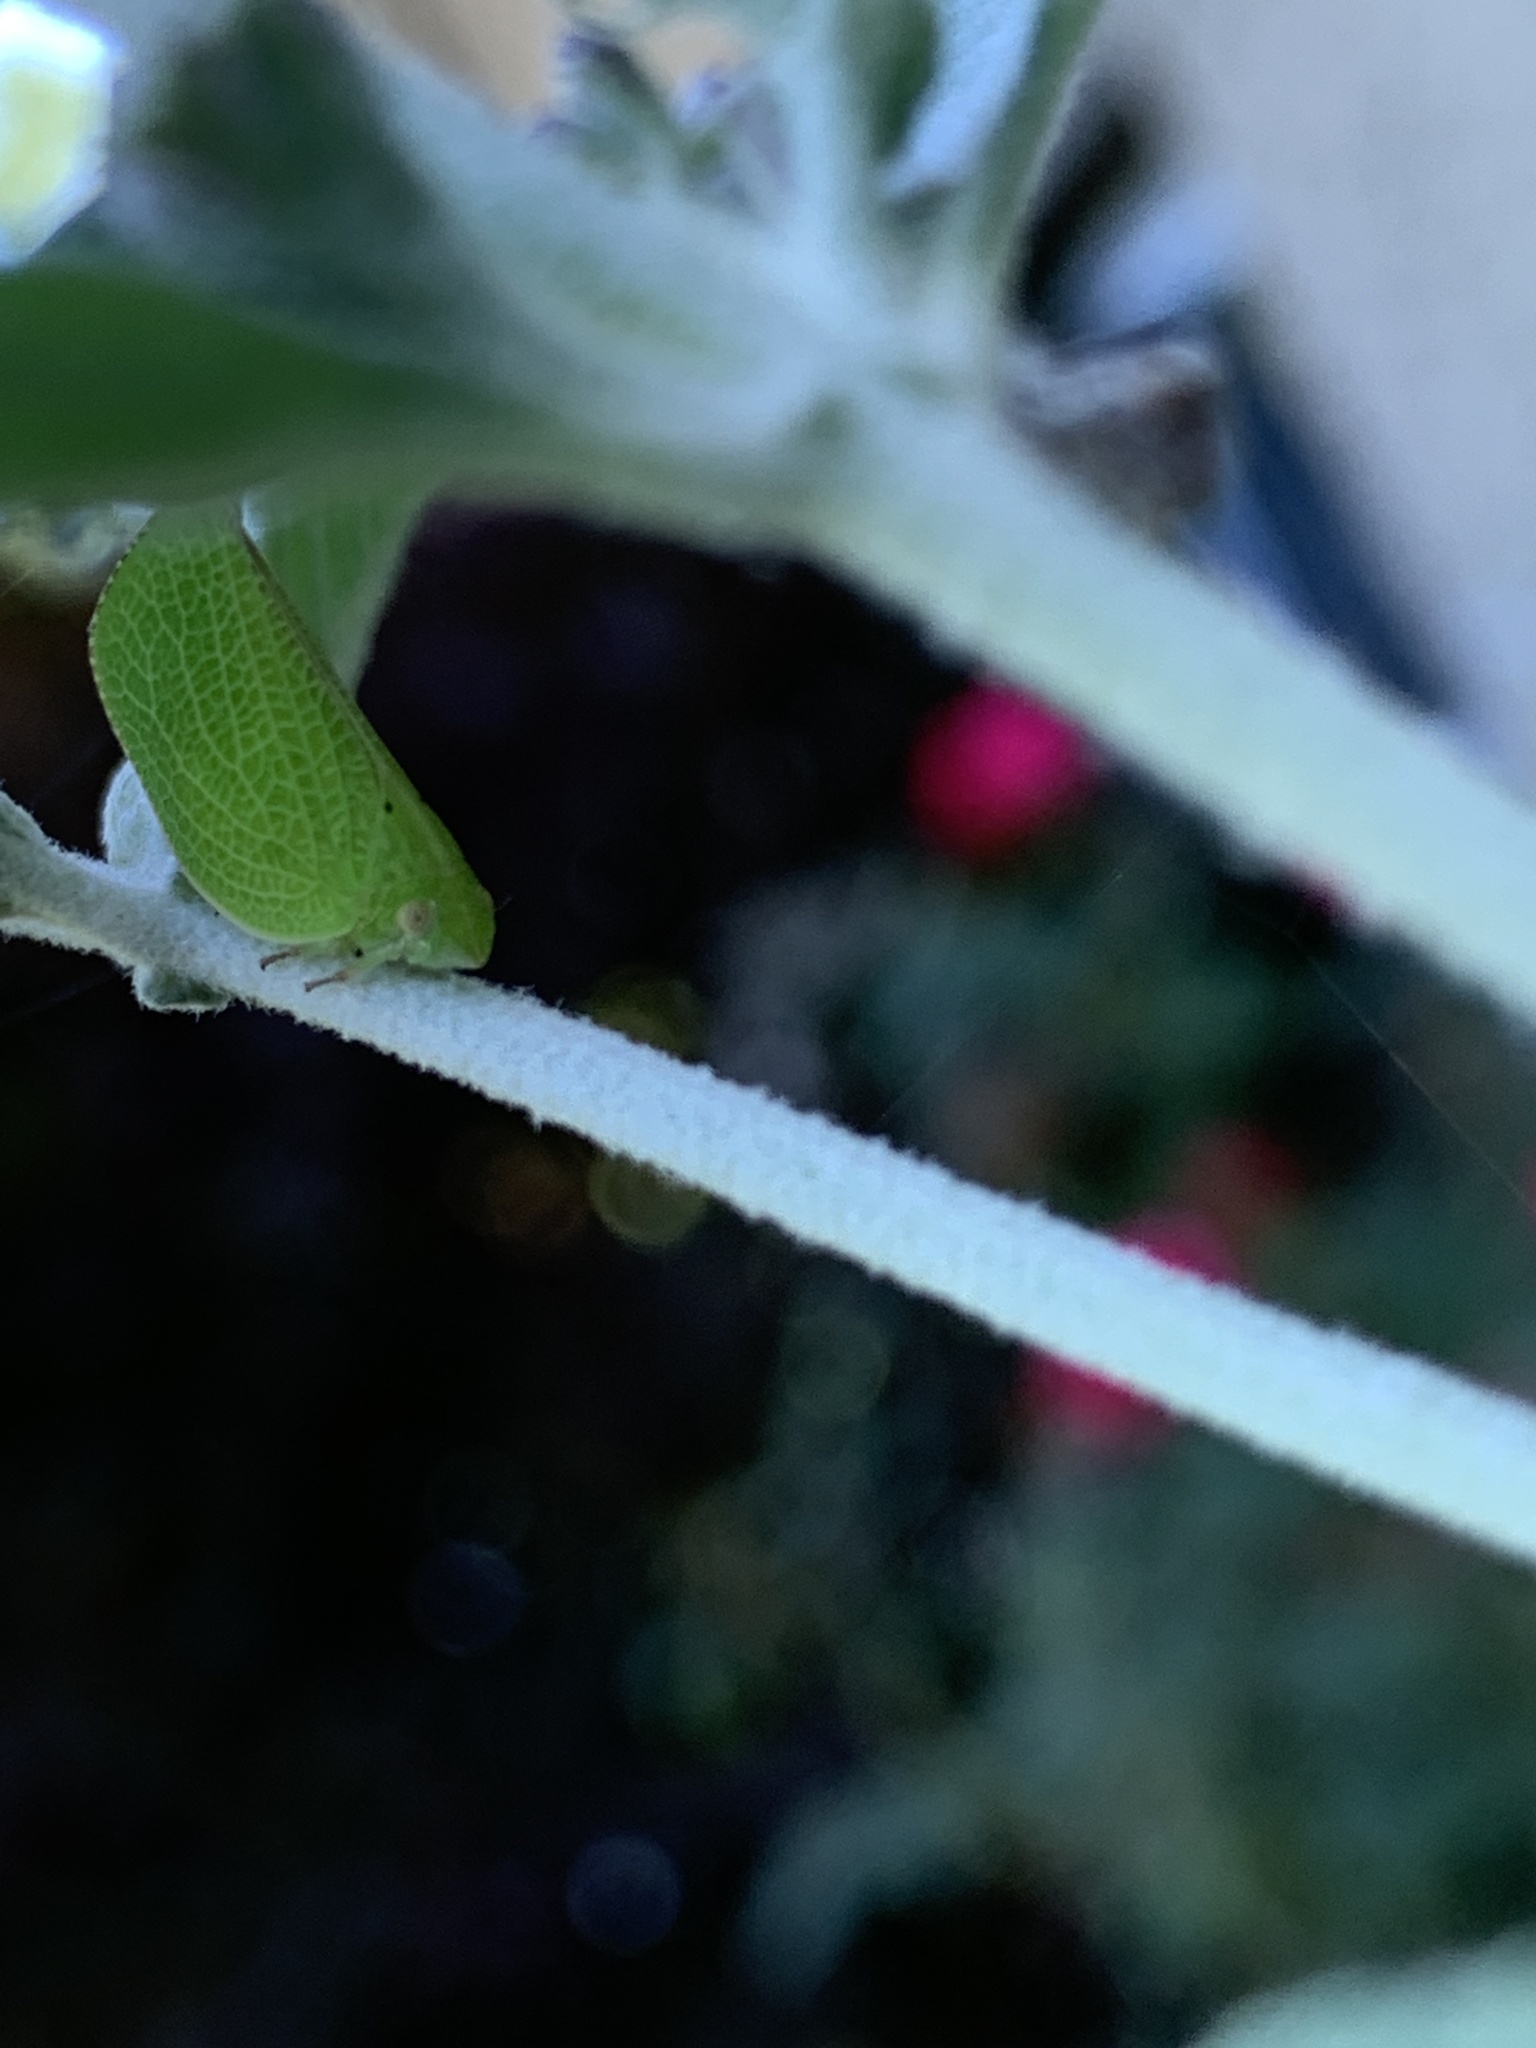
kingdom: Animalia
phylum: Arthropoda
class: Insecta
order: Hemiptera
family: Acanaloniidae
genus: Acanalonia
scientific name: Acanalonia conica
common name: Green cone-headed planthopper
